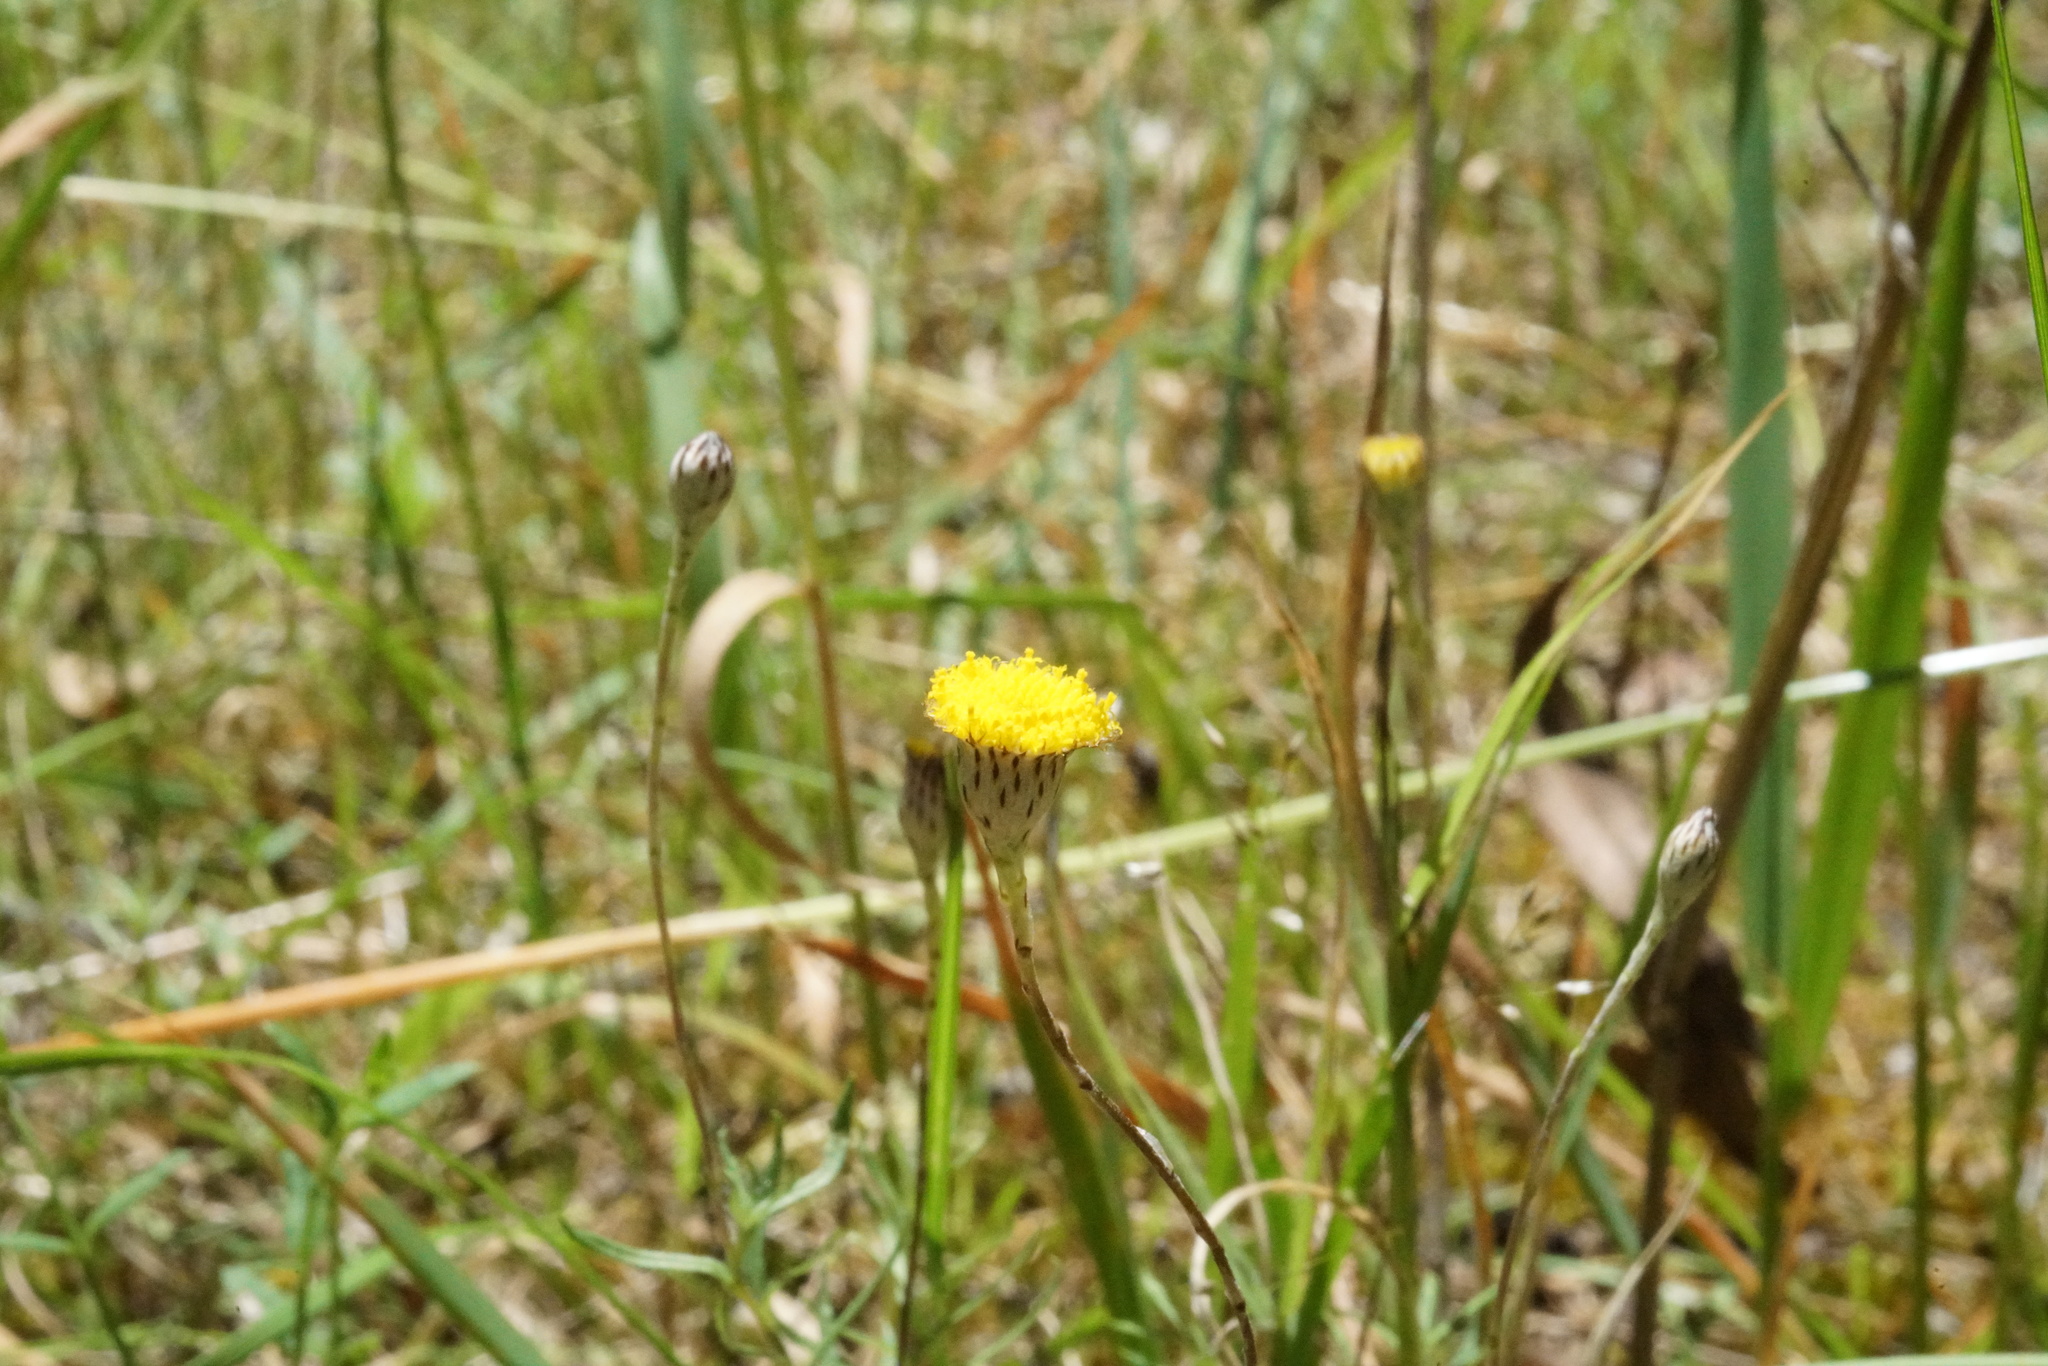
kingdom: Plantae
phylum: Tracheophyta
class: Magnoliopsida
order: Asterales
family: Asteraceae
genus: Leptorhynchos
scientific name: Leptorhynchos squamatus
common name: Scaly-buttons
